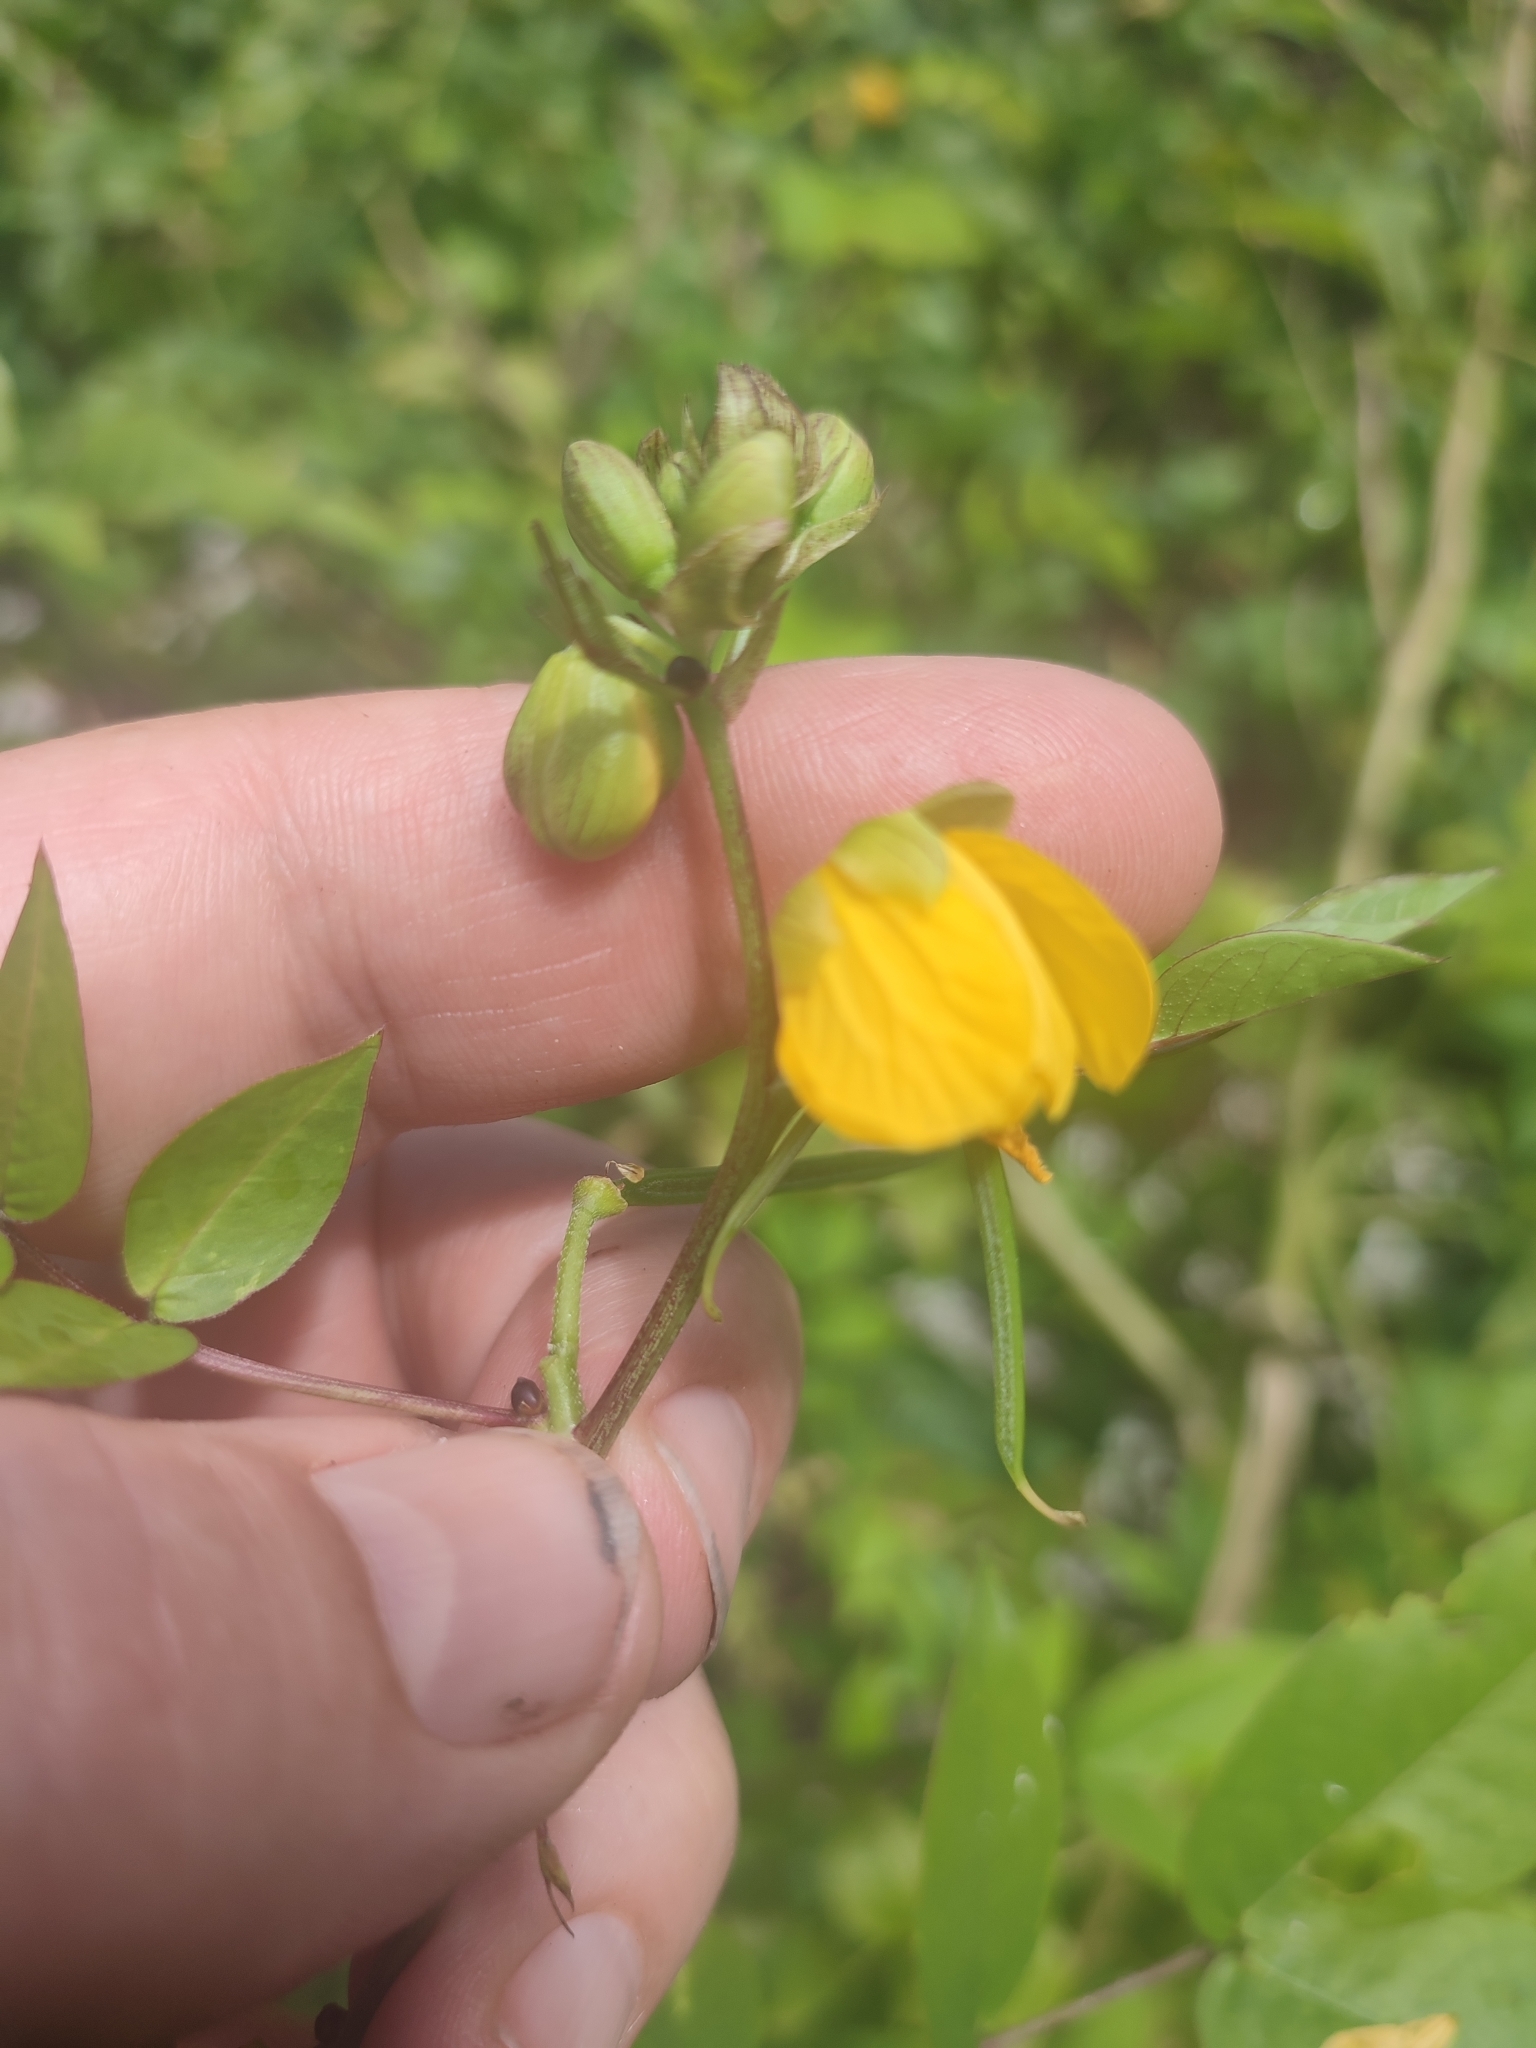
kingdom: Plantae
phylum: Tracheophyta
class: Magnoliopsida
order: Fabales
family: Fabaceae
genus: Senna
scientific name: Senna occidentalis
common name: Septicweed
